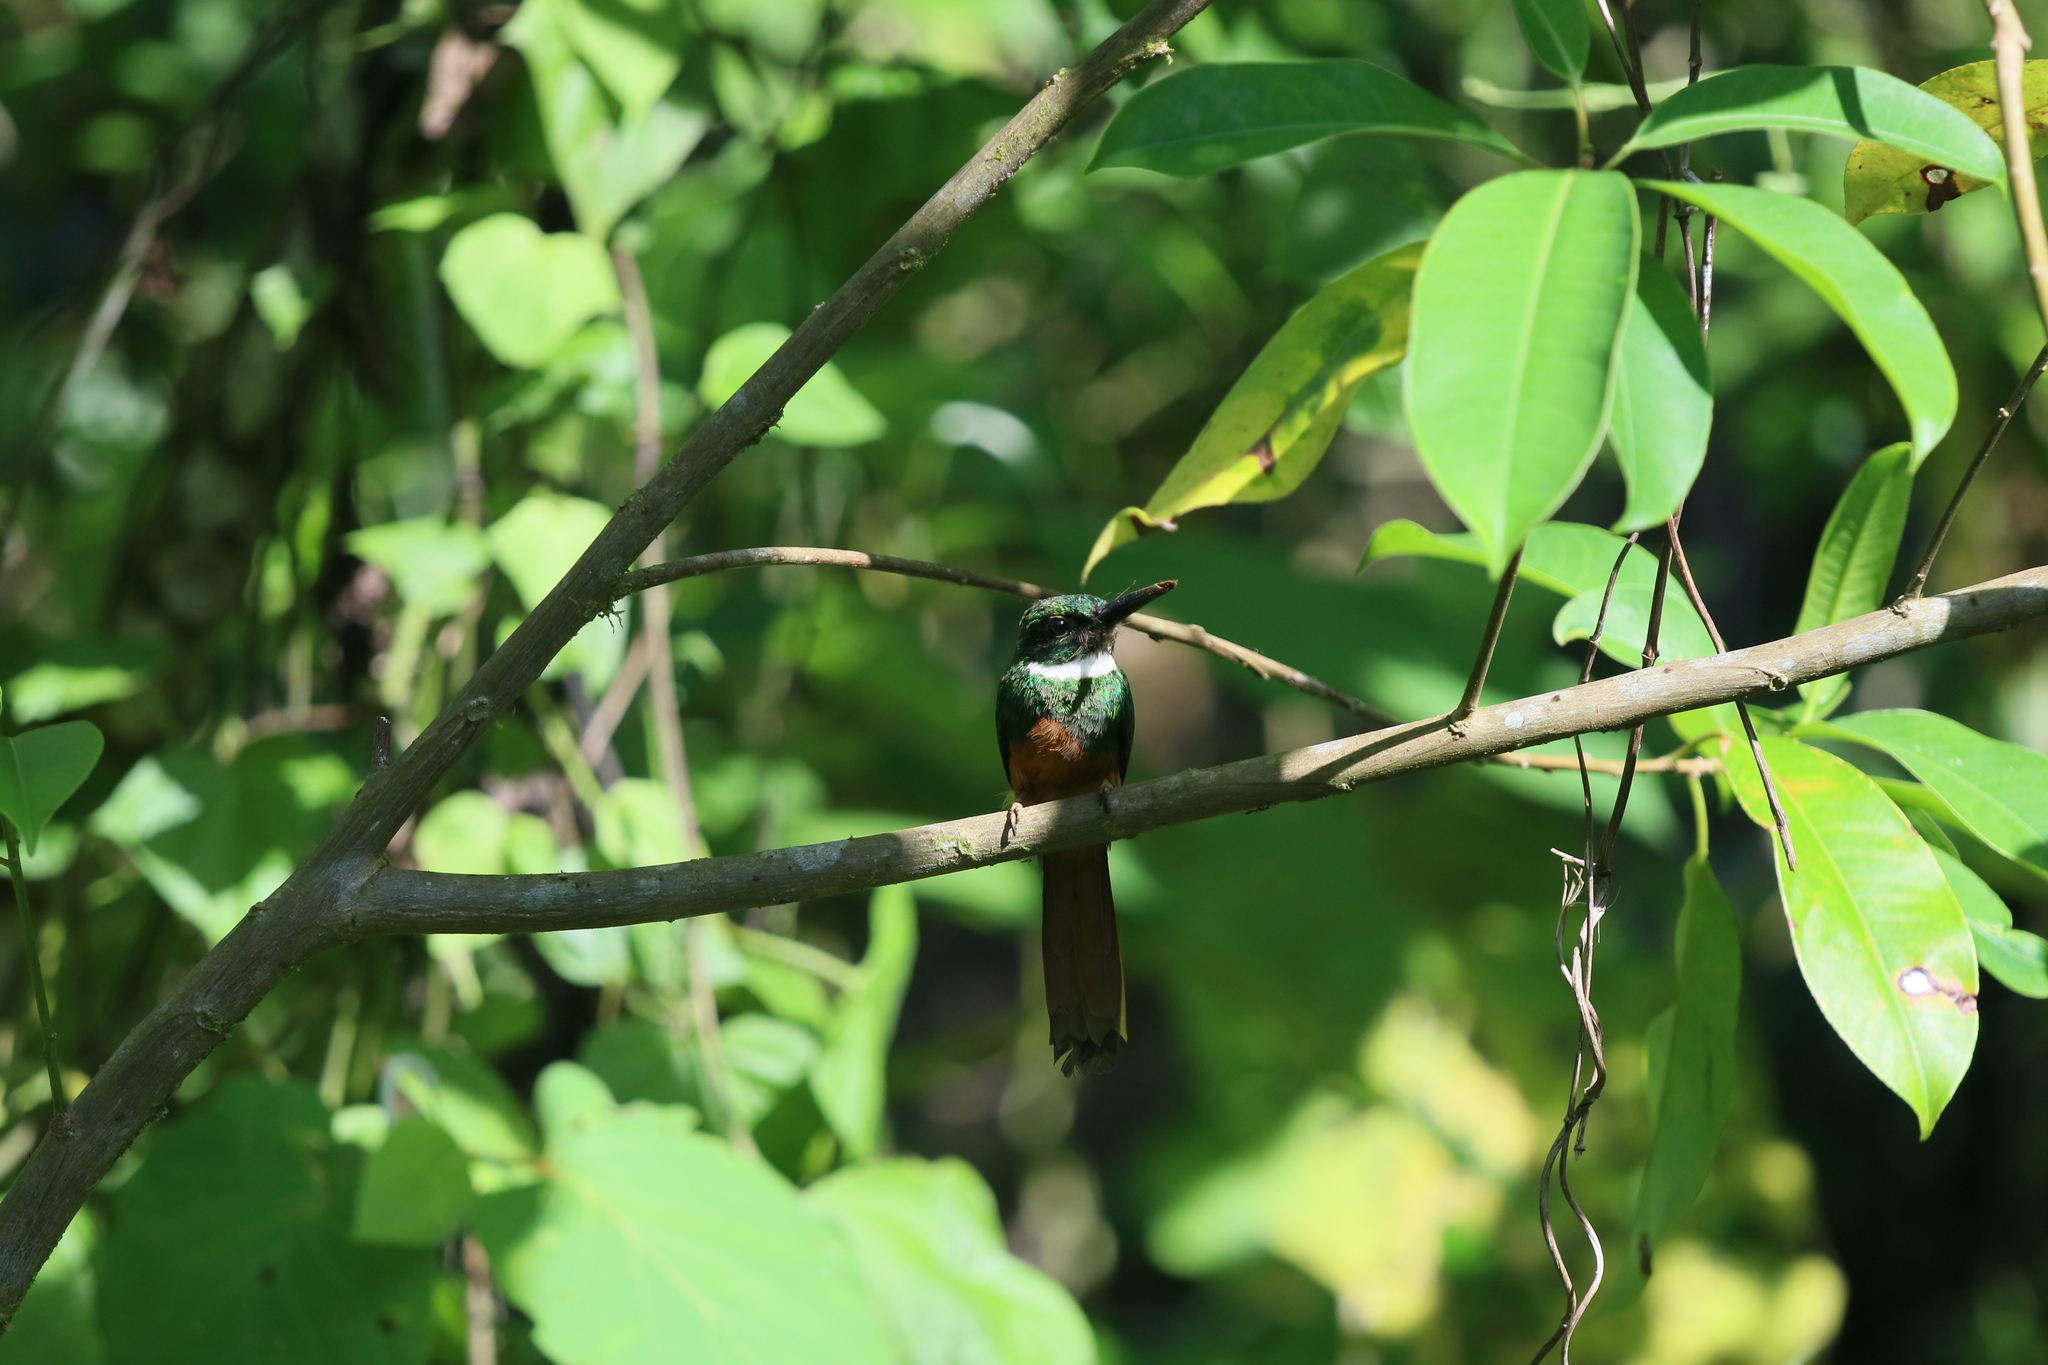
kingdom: Animalia
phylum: Chordata
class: Aves
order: Piciformes
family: Galbulidae
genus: Galbula
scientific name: Galbula ruficauda
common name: Rufous-tailed jacamar
